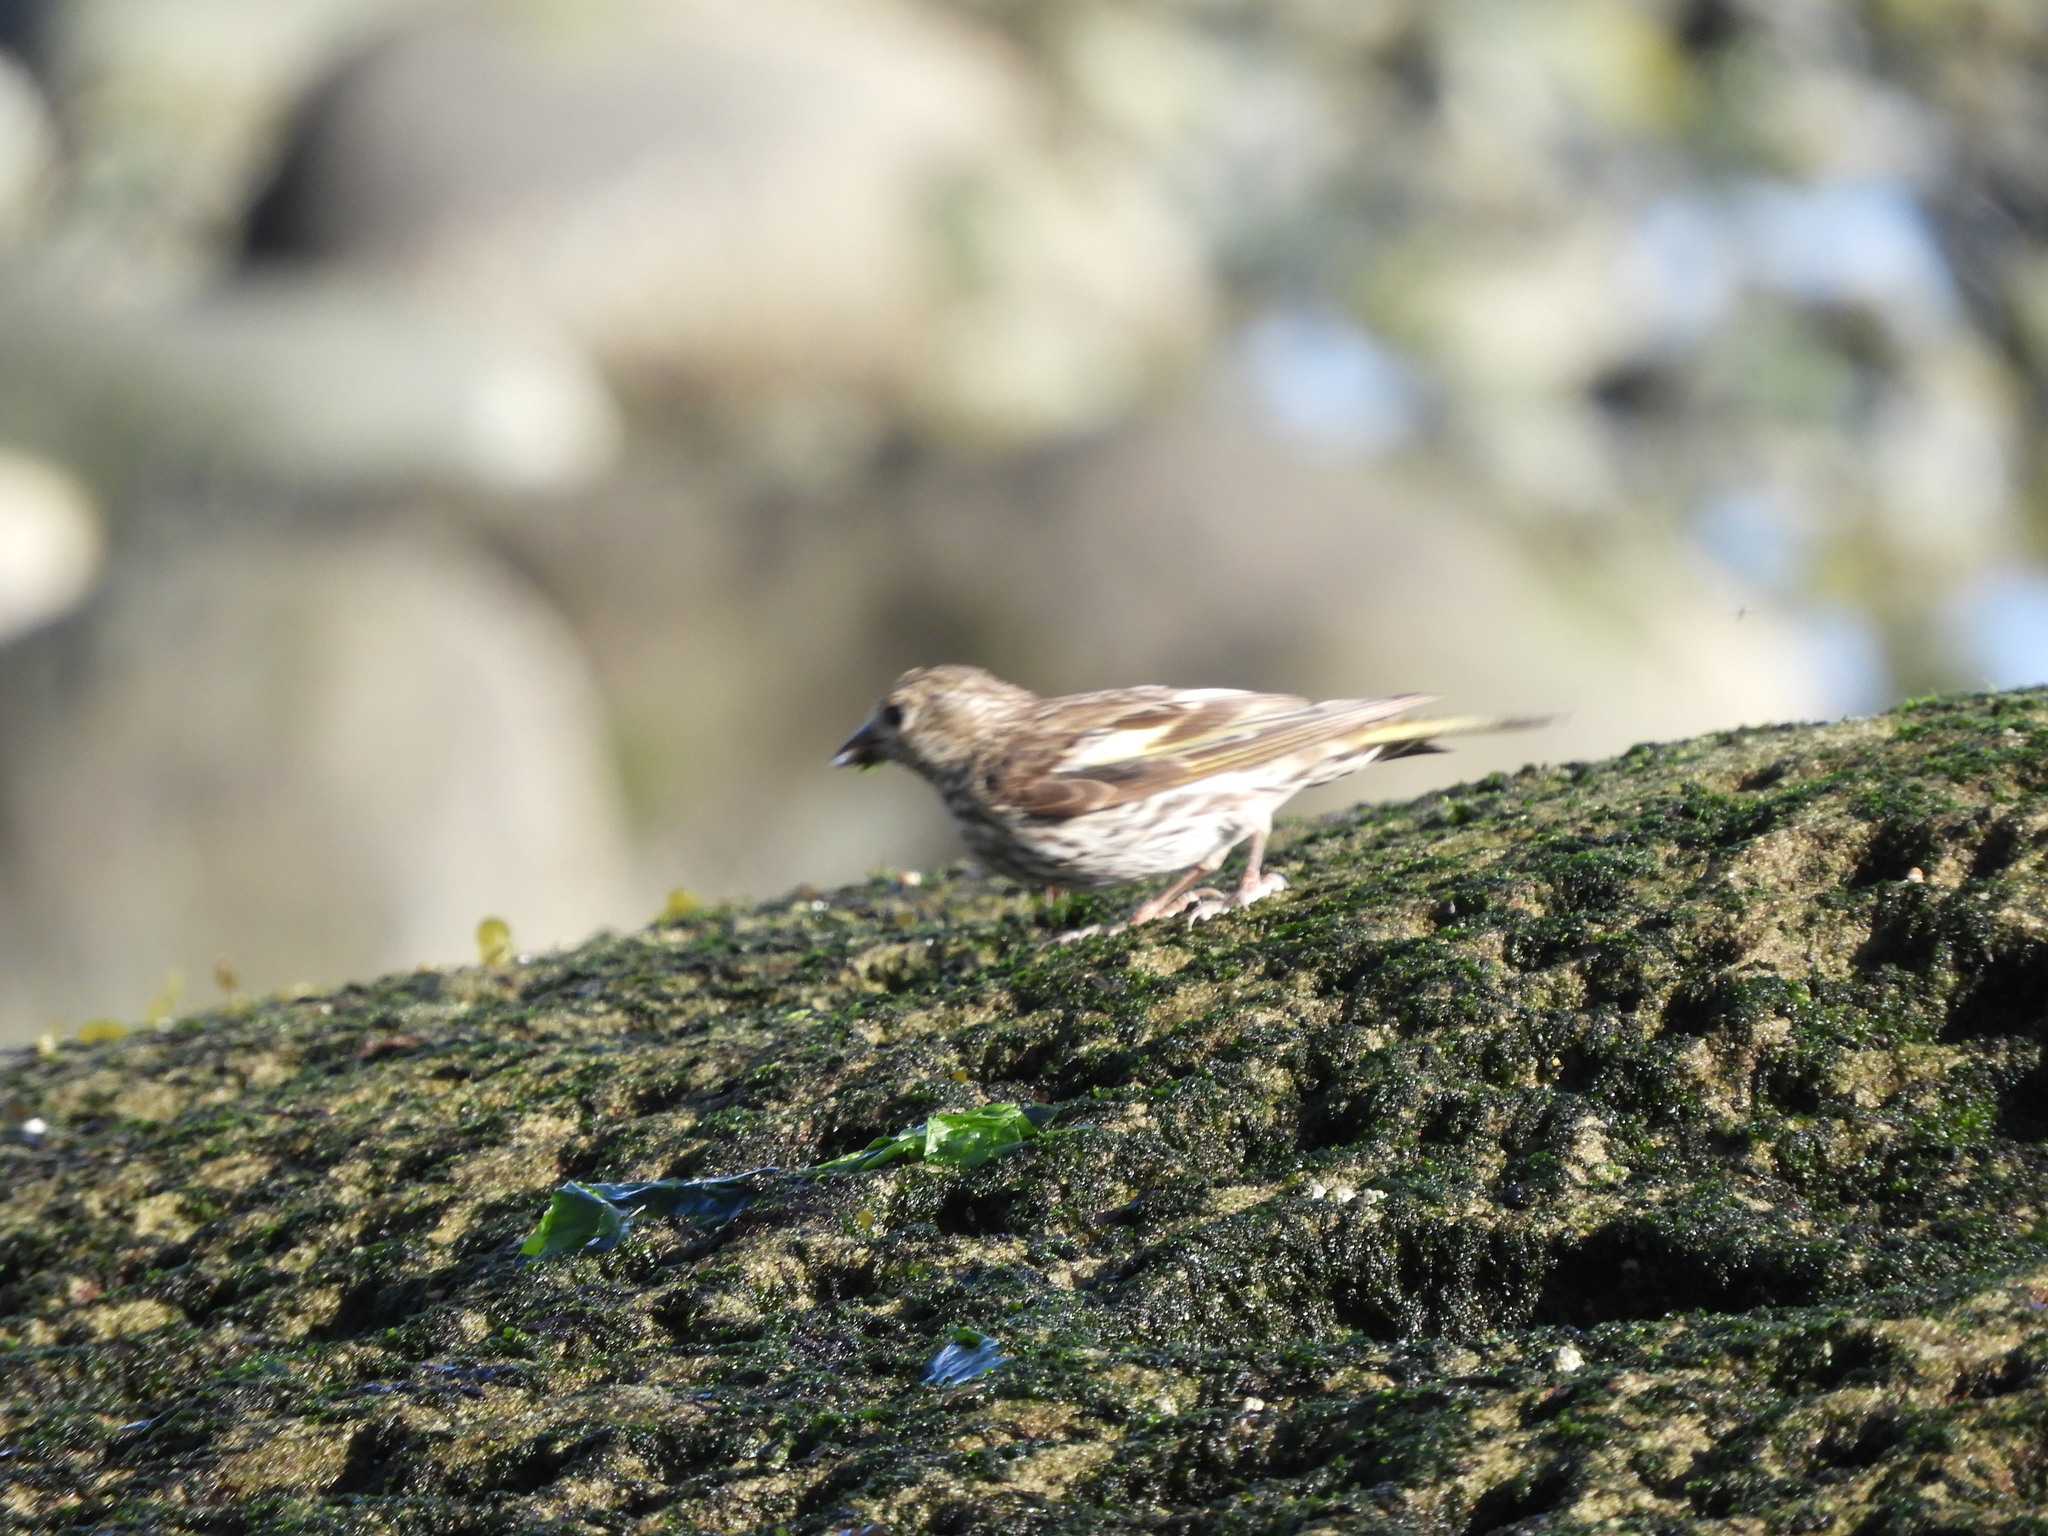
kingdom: Animalia
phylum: Chordata
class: Aves
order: Passeriformes
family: Fringillidae
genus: Spinus
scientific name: Spinus pinus
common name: Pine siskin
